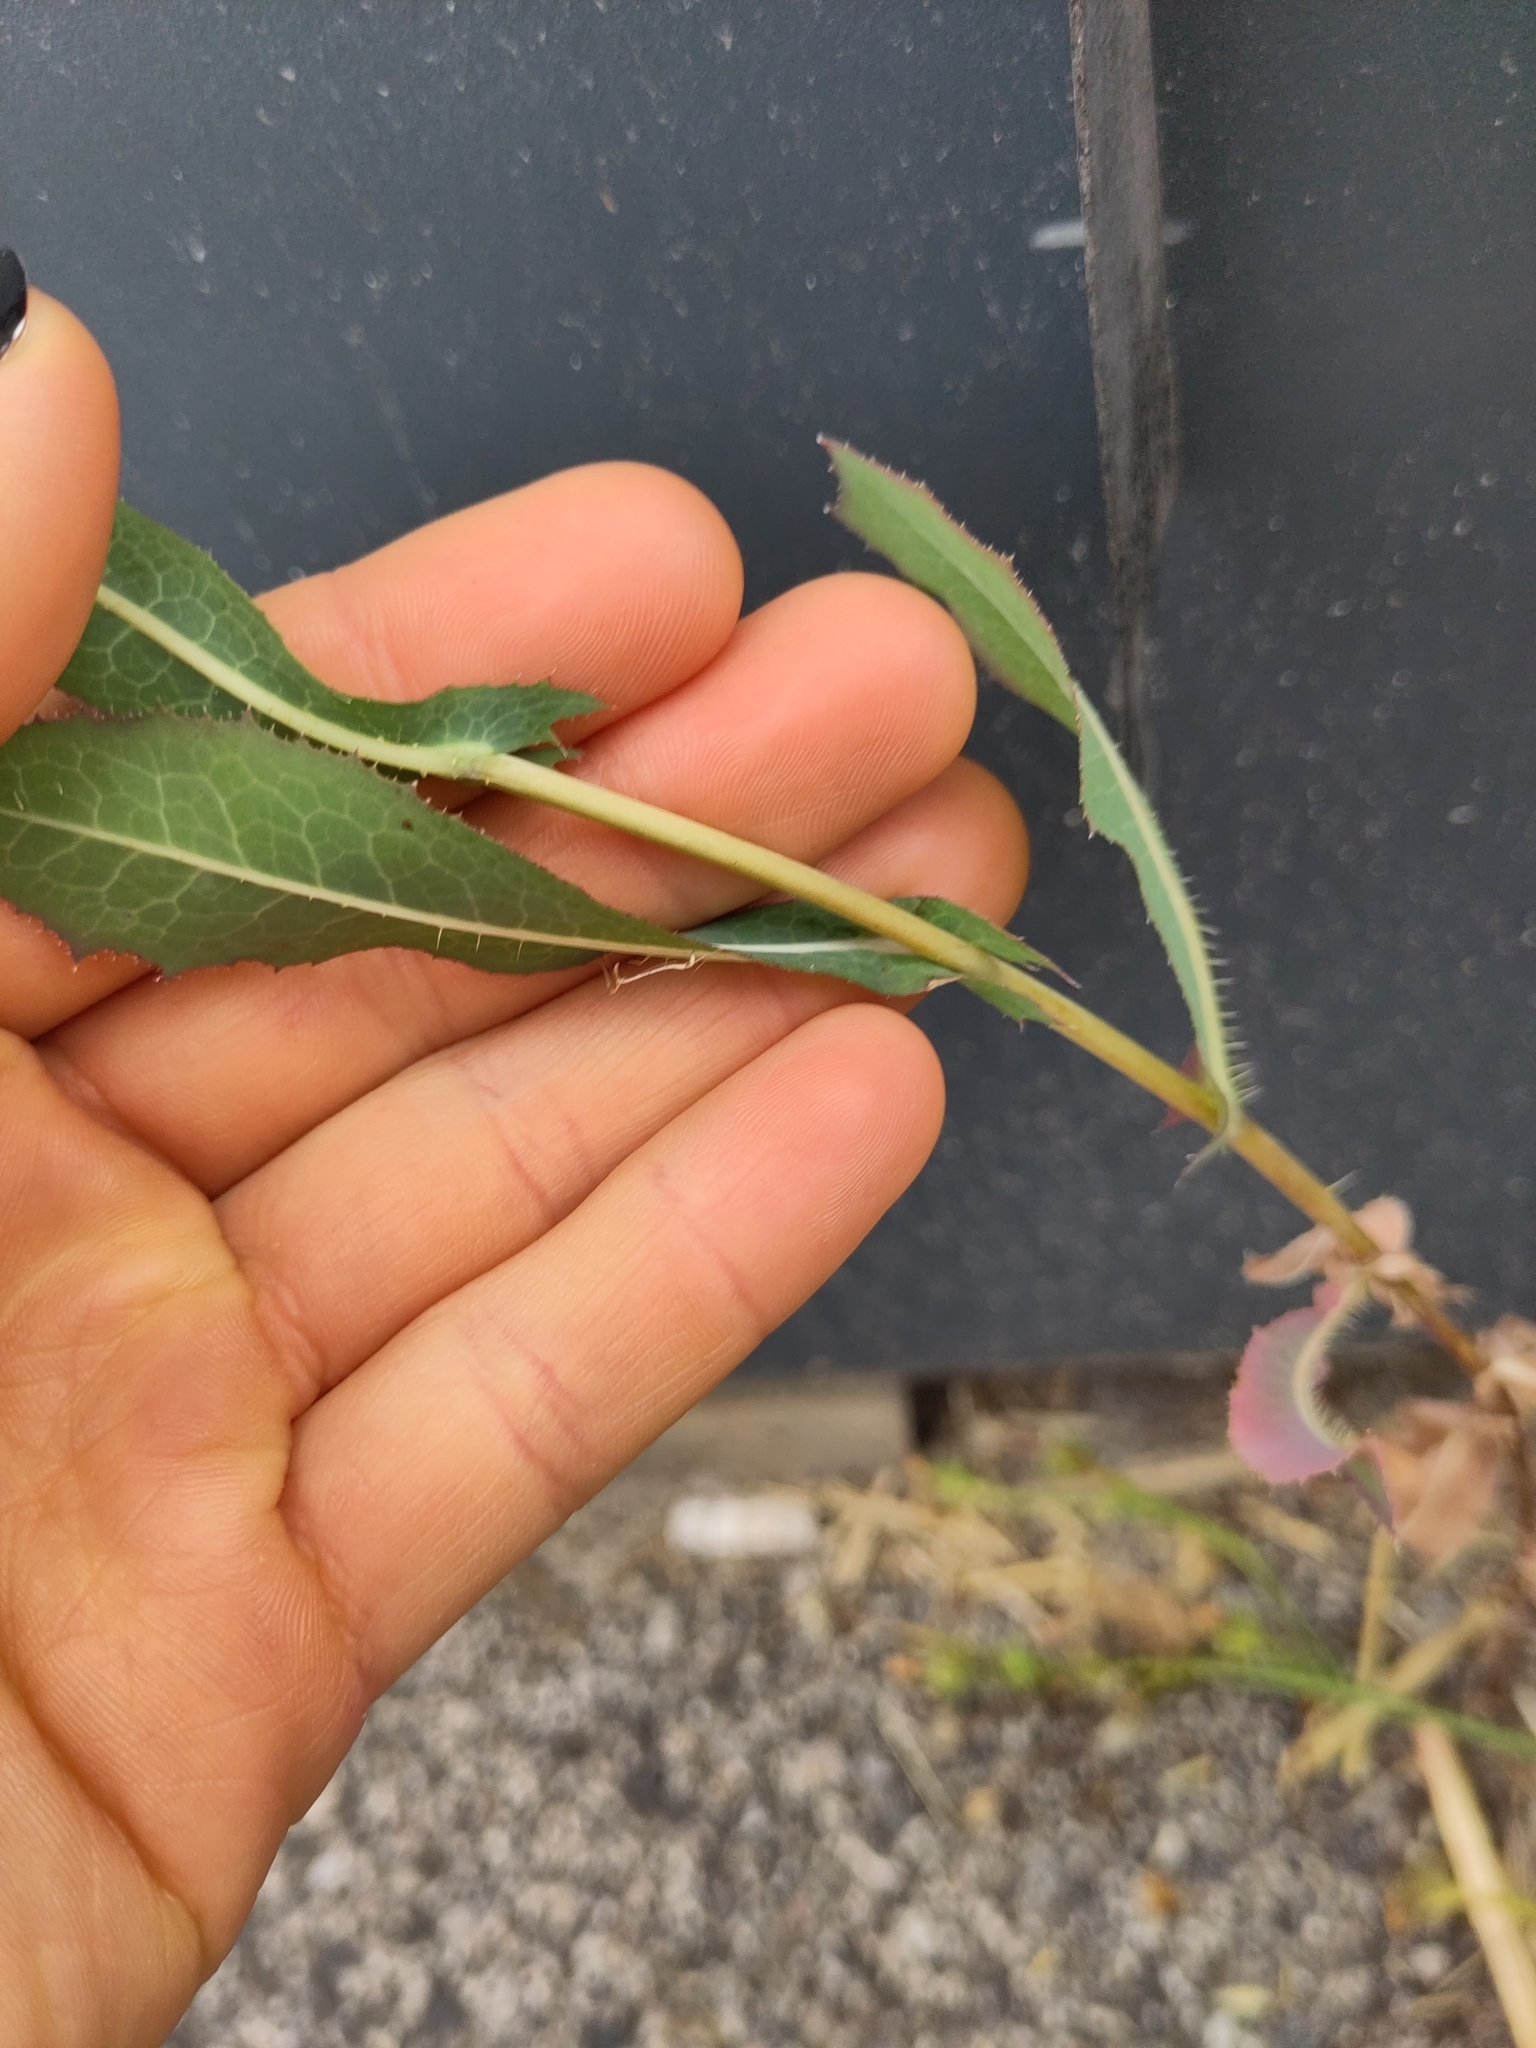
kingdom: Plantae
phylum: Tracheophyta
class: Magnoliopsida
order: Asterales
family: Asteraceae
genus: Lactuca
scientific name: Lactuca serriola
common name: Prickly lettuce
